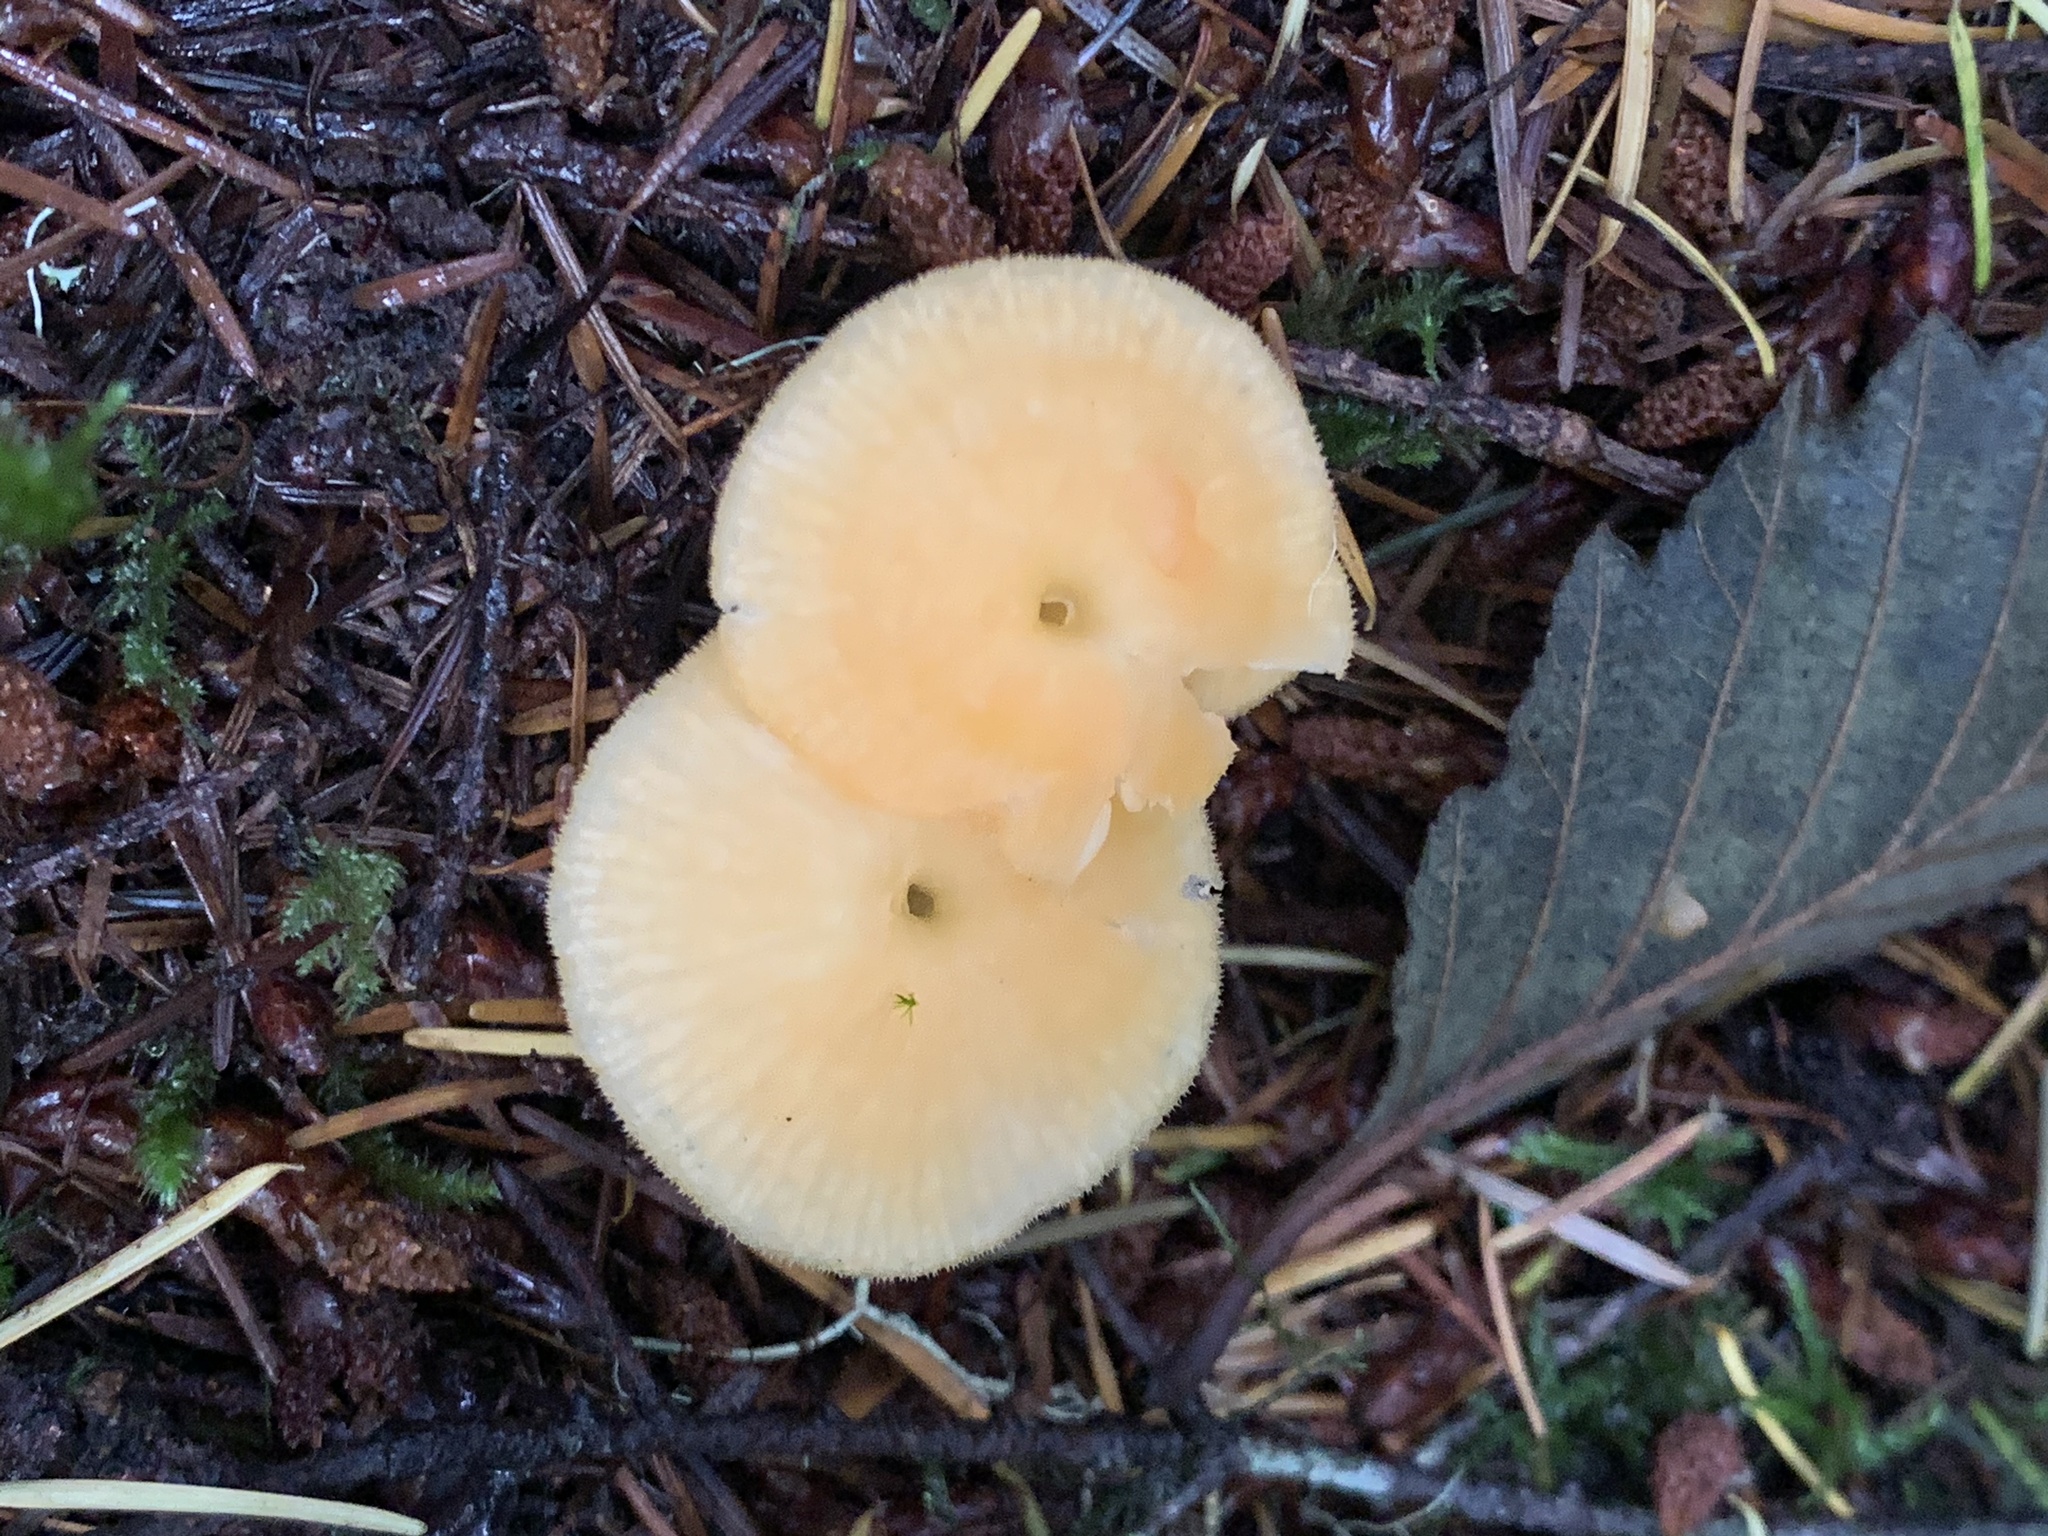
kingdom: Fungi
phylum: Basidiomycota
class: Agaricomycetes
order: Agaricales
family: Hygrophoraceae
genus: Chrysomphalina
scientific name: Chrysomphalina aurantiaca
